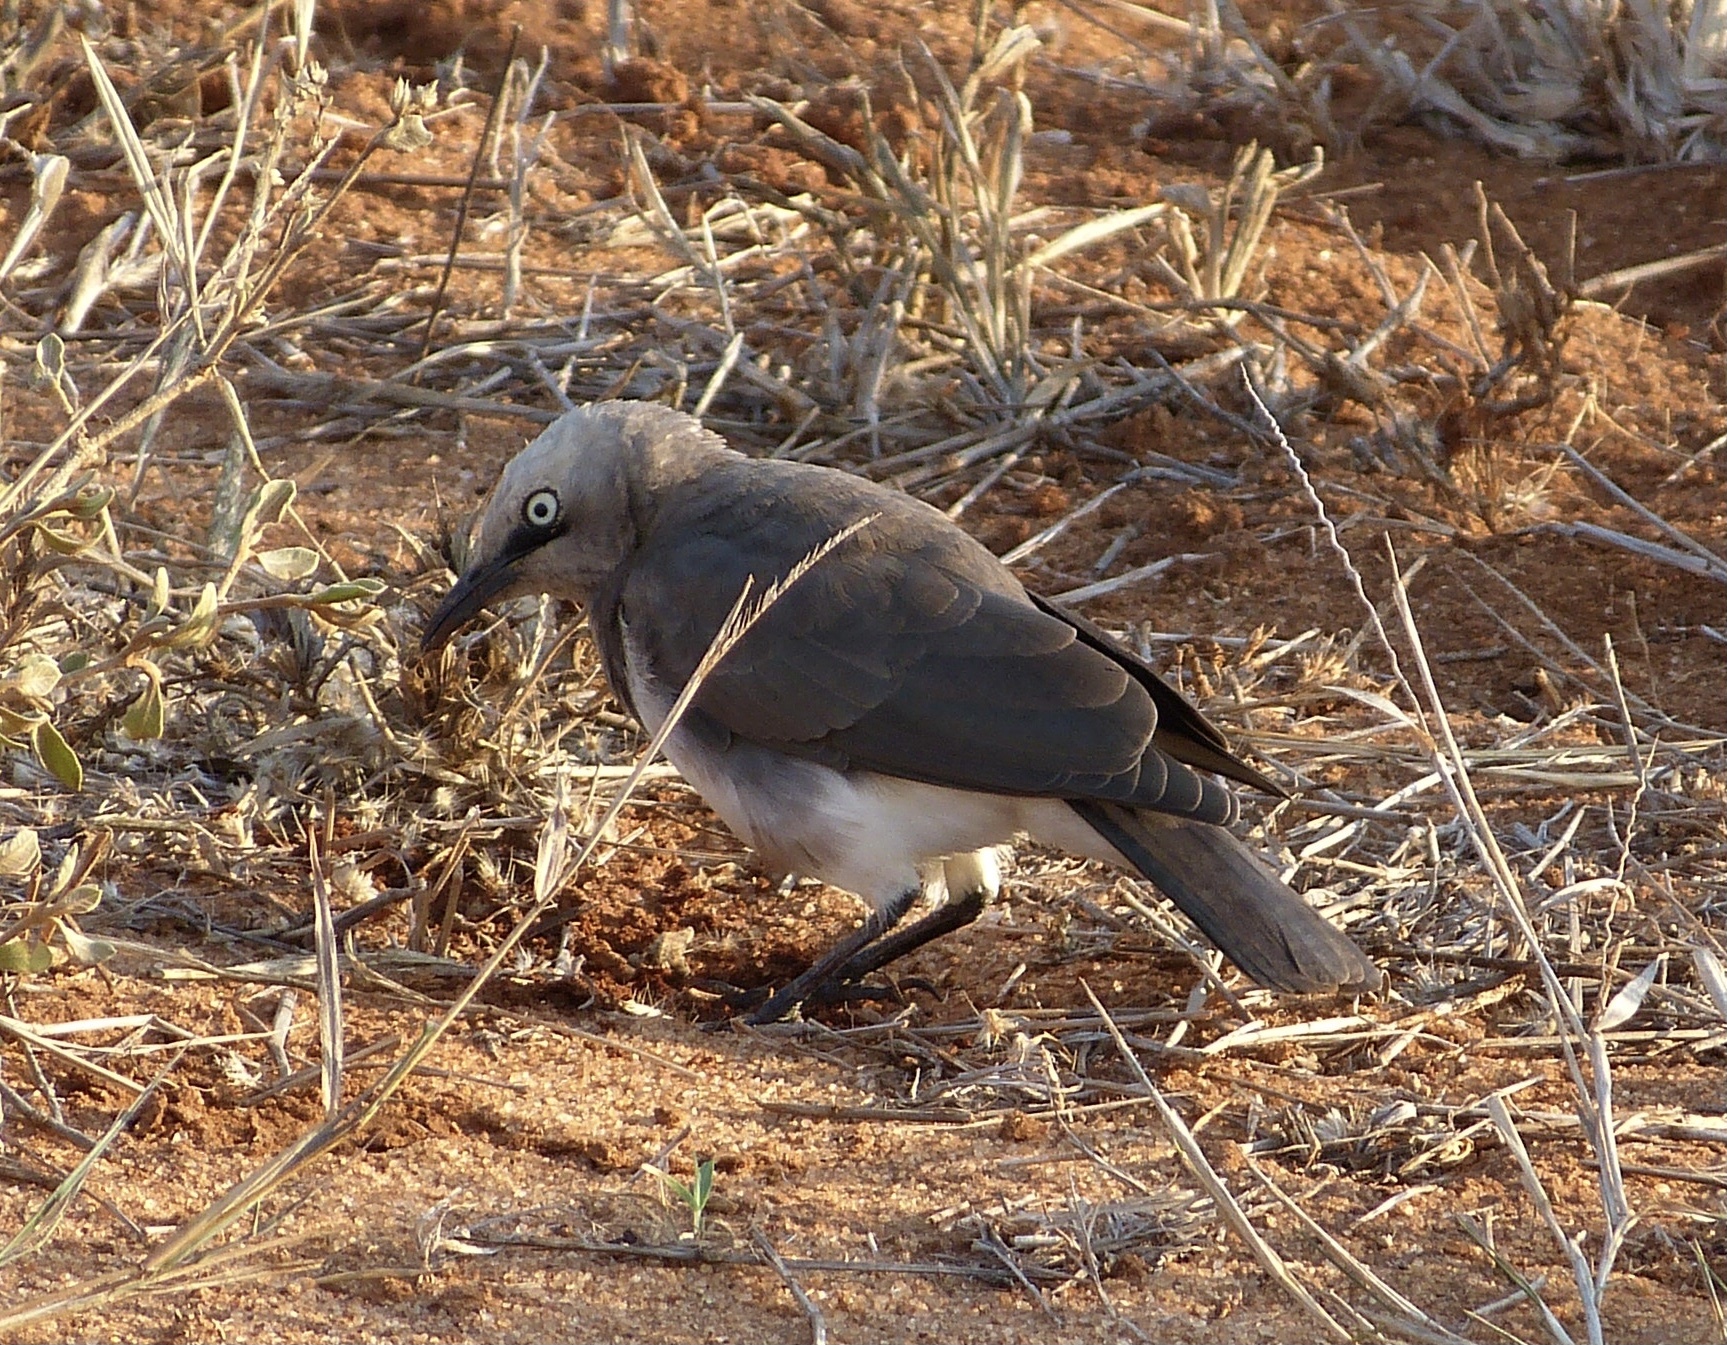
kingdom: Animalia
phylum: Chordata
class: Aves
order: Passeriformes
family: Sturnidae
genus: Lamprotornis
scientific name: Lamprotornis fischeri
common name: Fischer's starling
